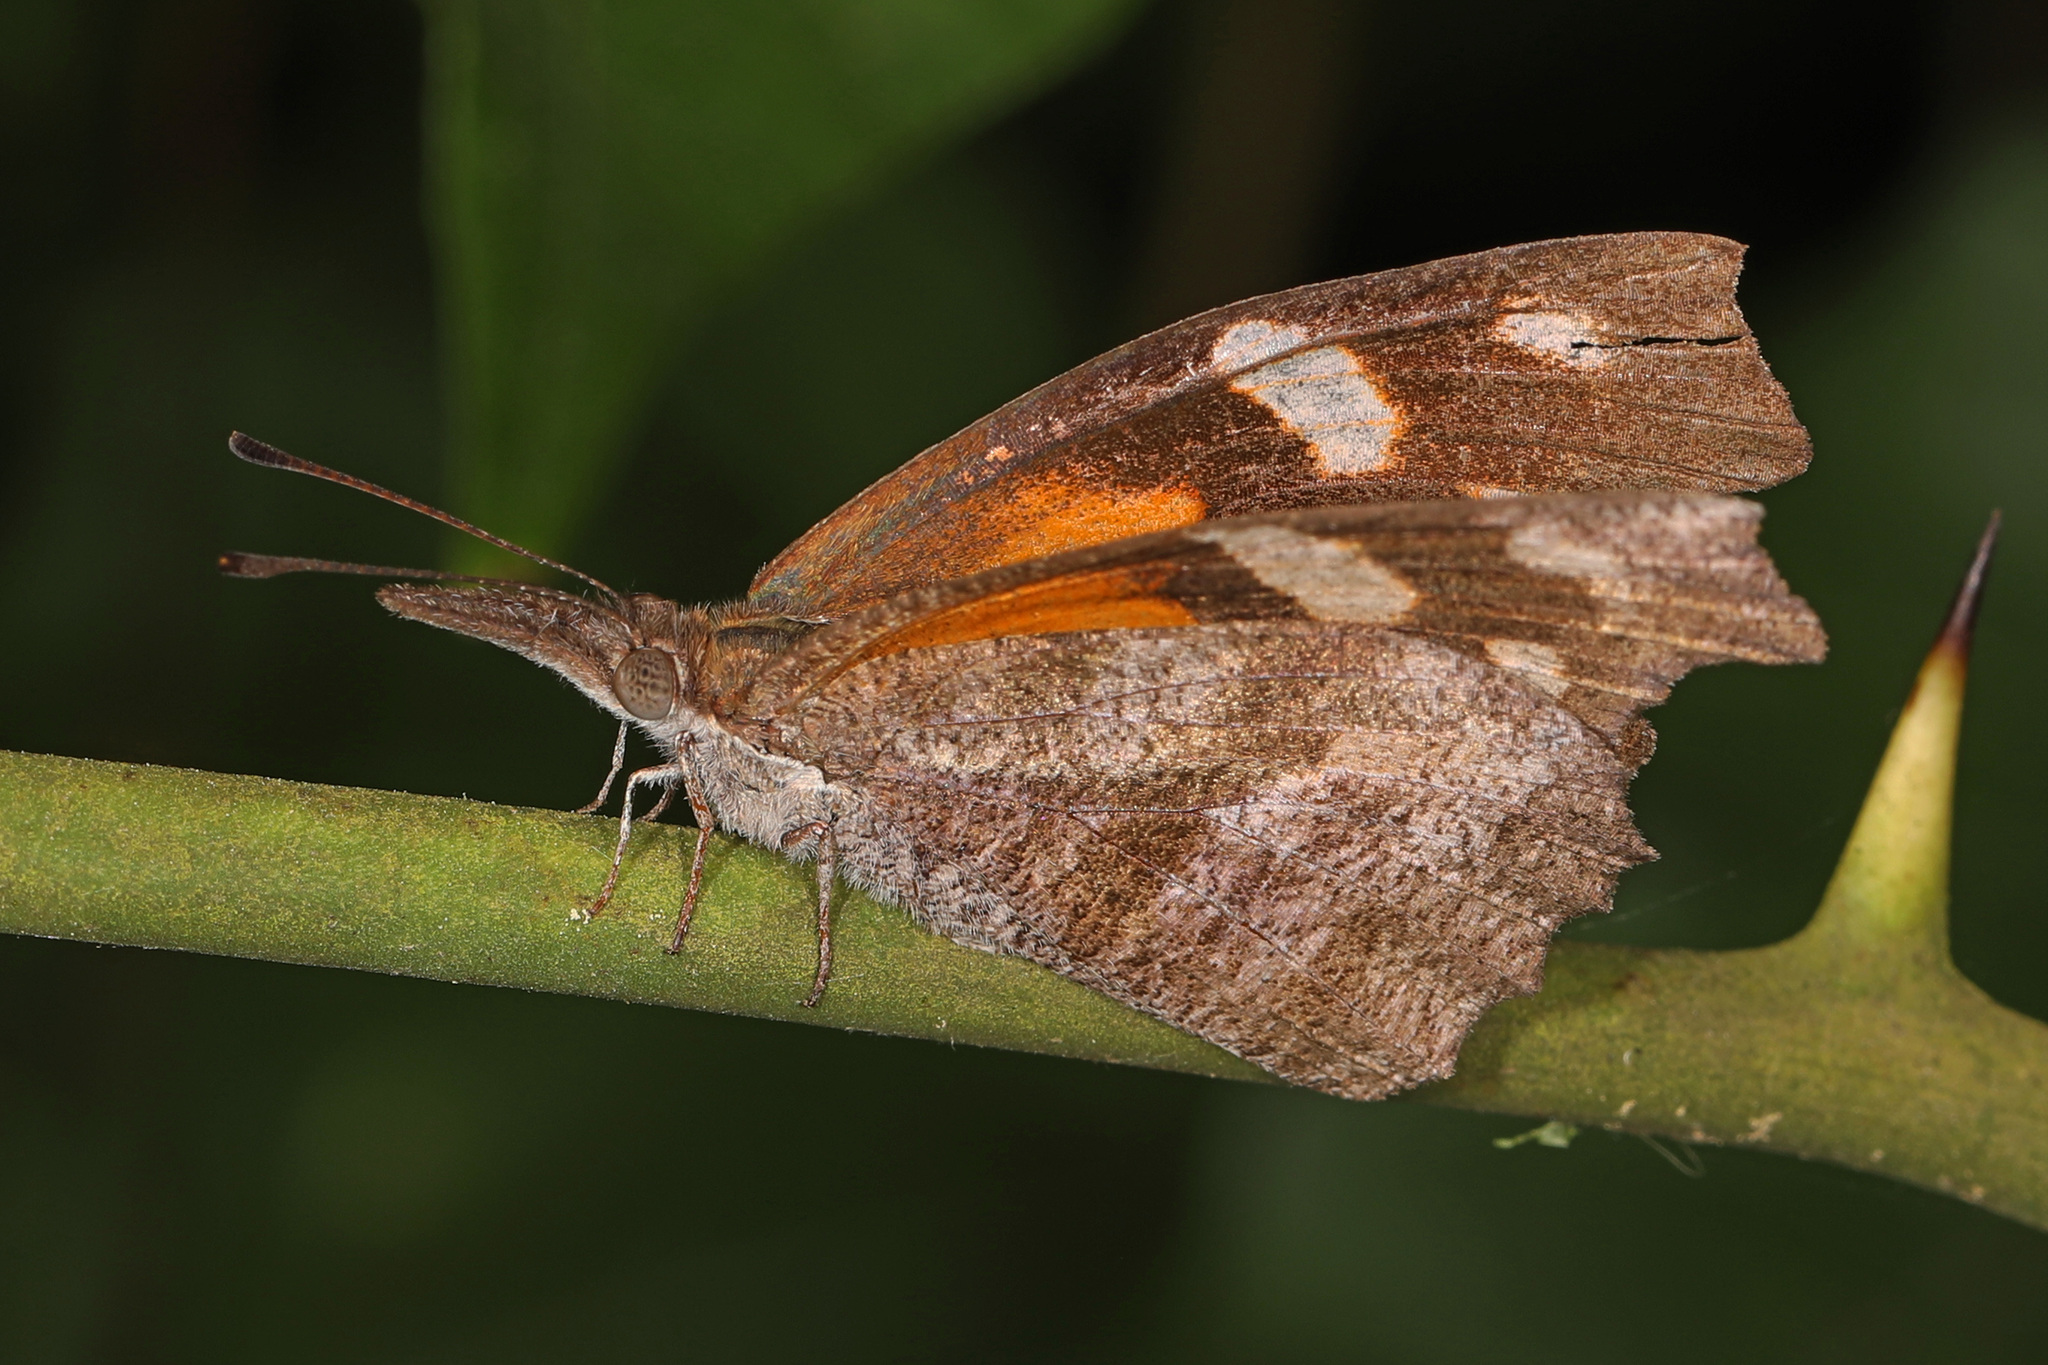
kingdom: Animalia
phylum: Arthropoda
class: Insecta
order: Lepidoptera
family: Nymphalidae
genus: Libytheana
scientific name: Libytheana carinenta
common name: American snout
